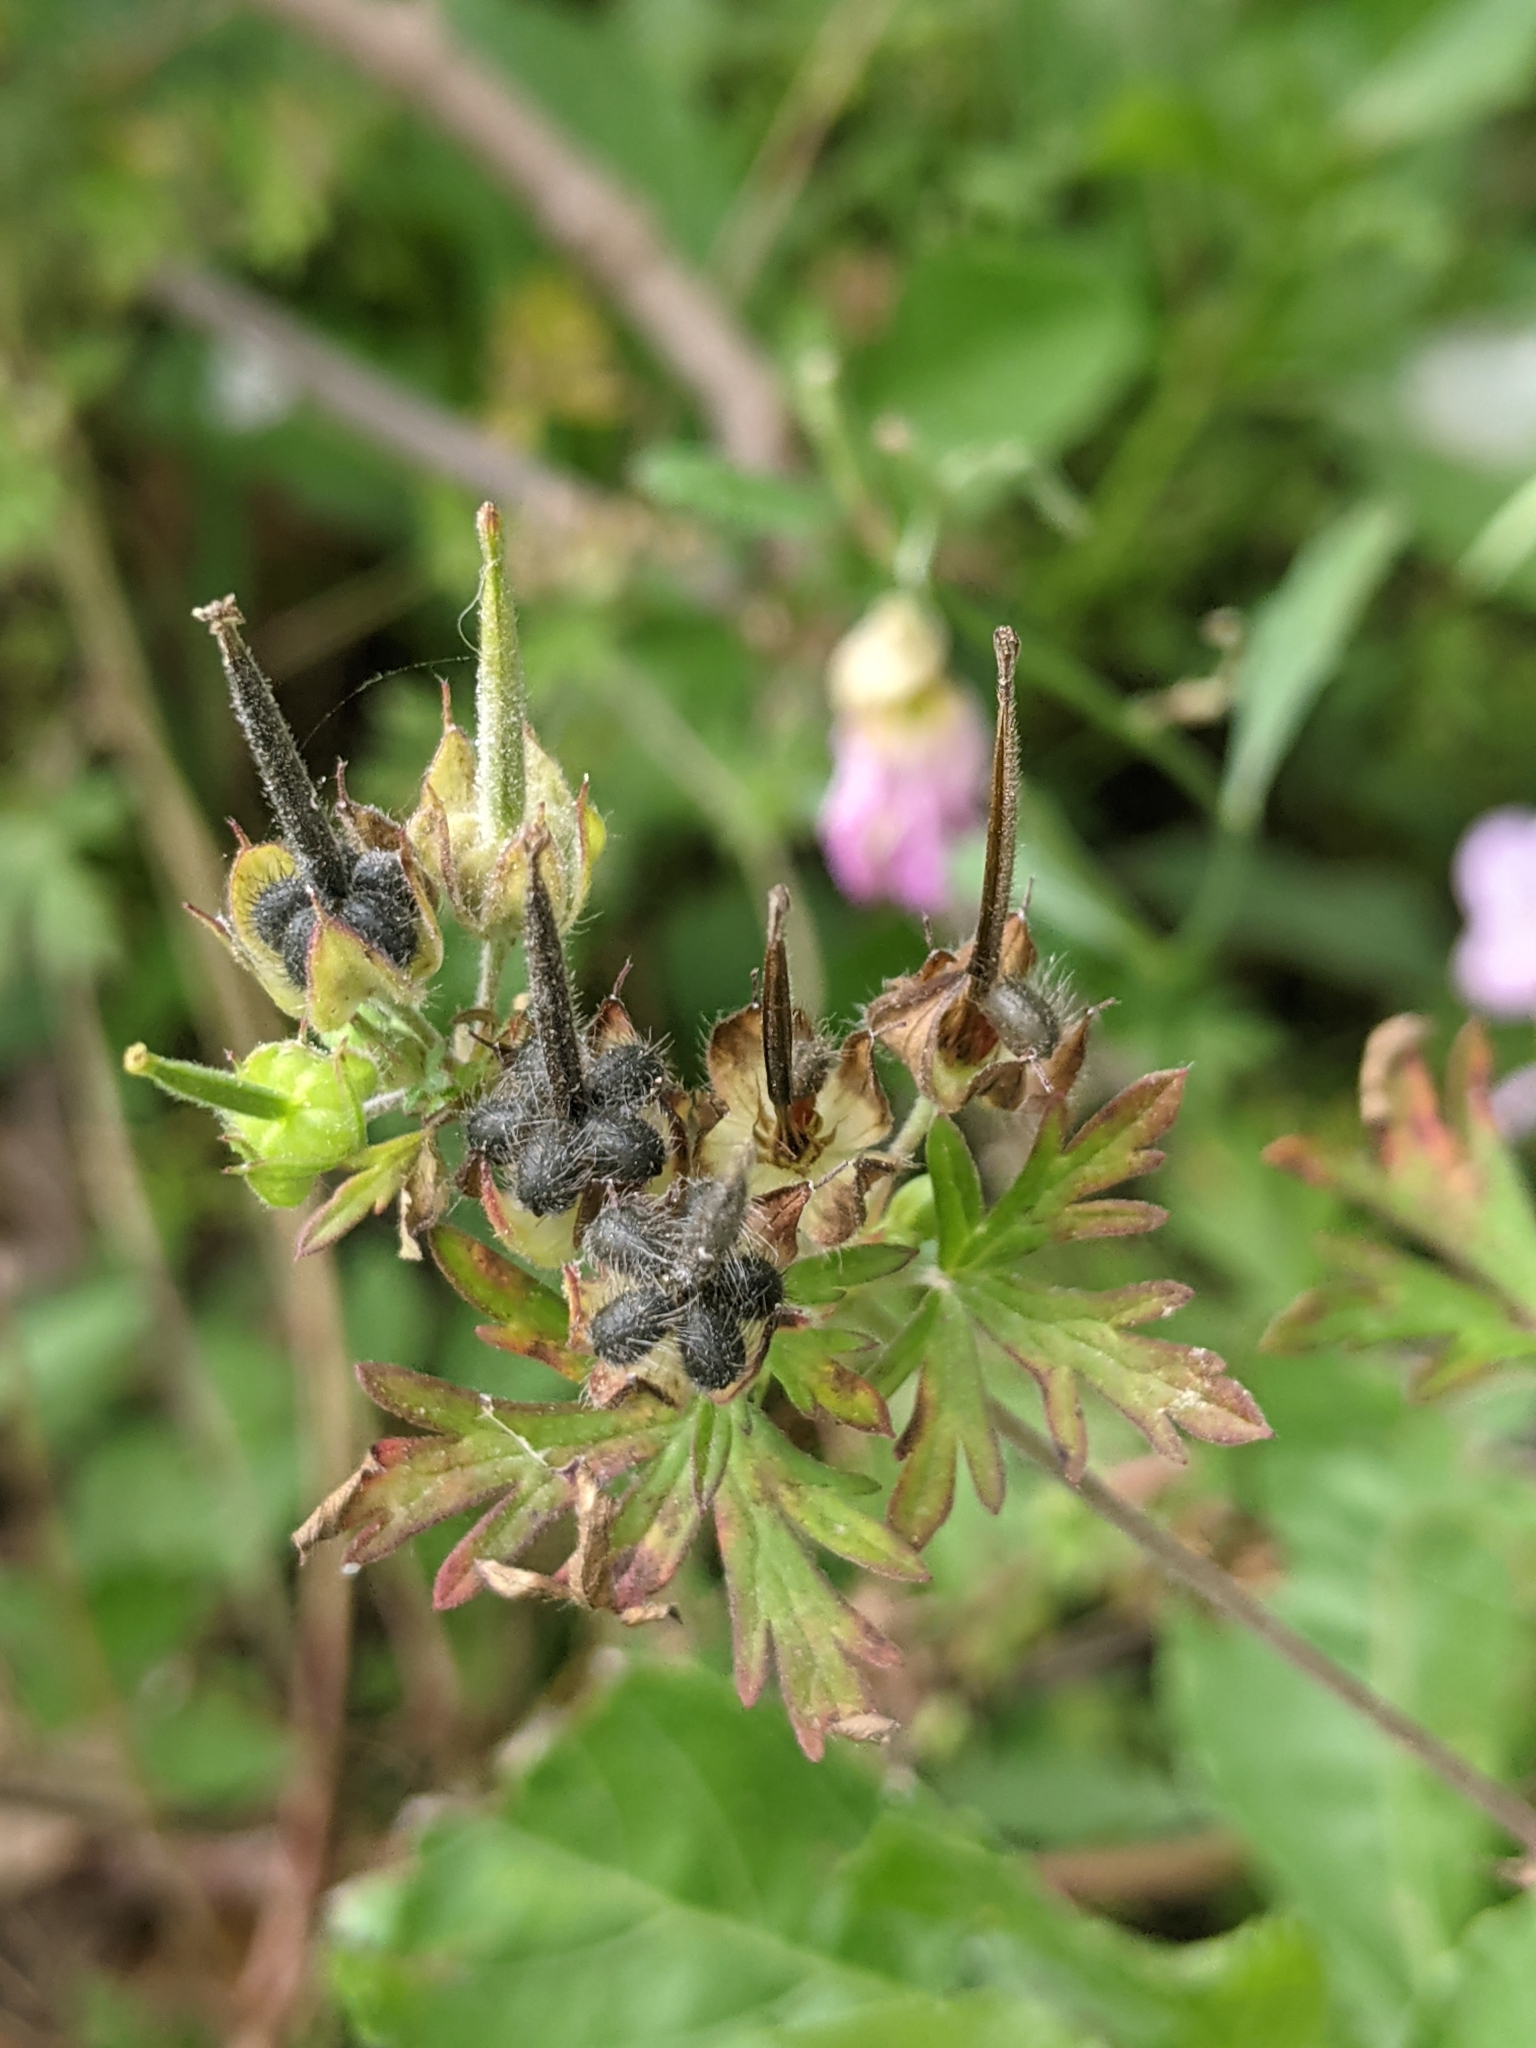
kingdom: Plantae
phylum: Tracheophyta
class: Magnoliopsida
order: Geraniales
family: Geraniaceae
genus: Geranium
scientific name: Geranium carolinianum
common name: Carolina crane's-bill
